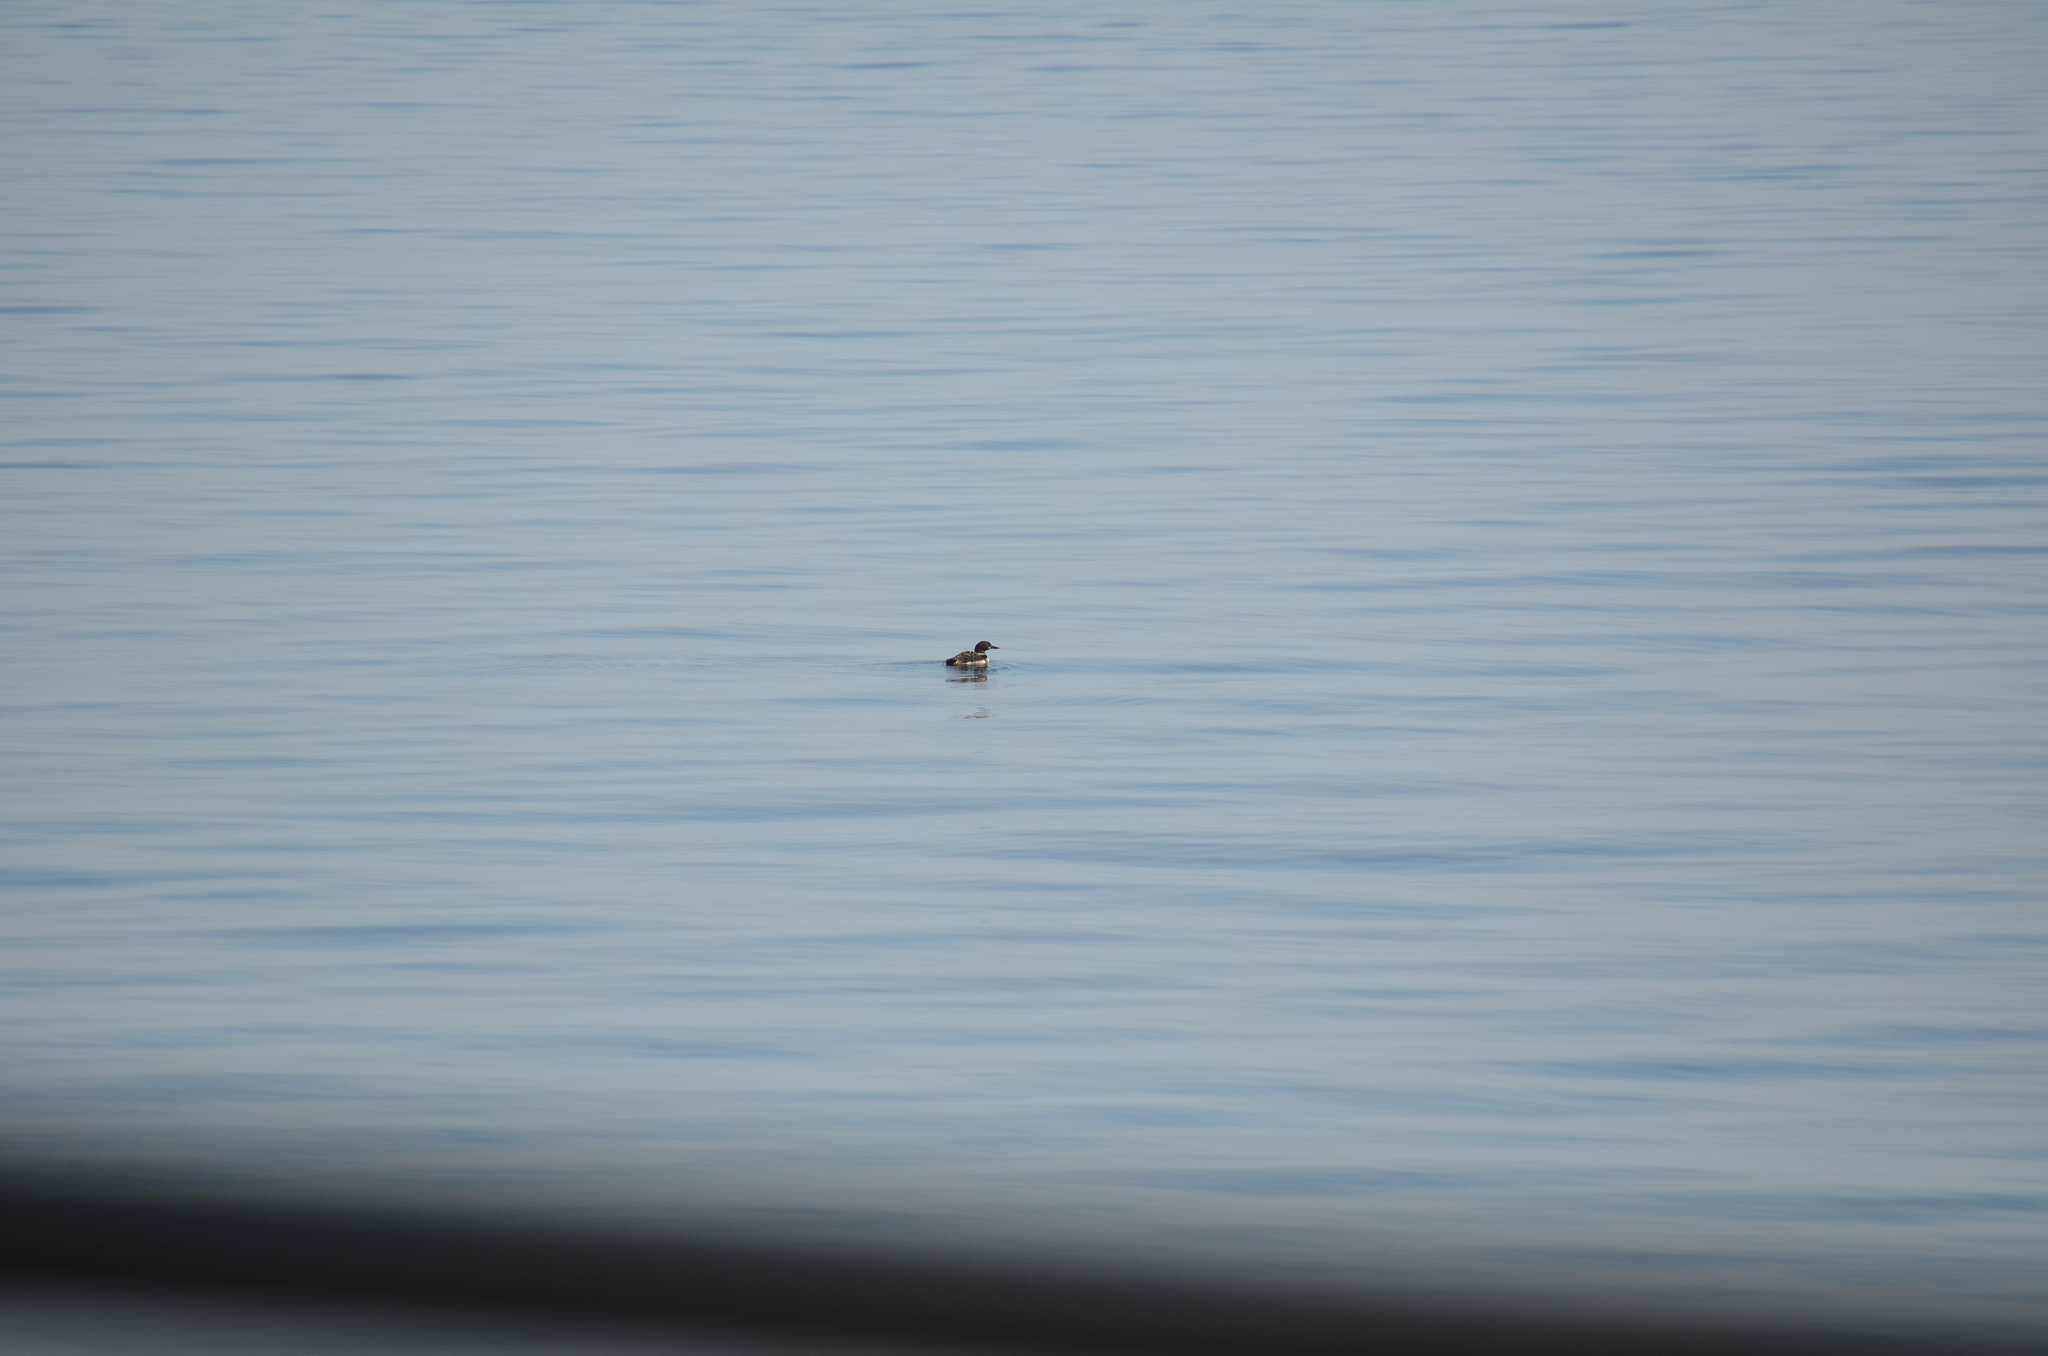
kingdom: Animalia
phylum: Chordata
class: Aves
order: Gaviiformes
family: Gaviidae
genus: Gavia
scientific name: Gavia immer
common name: Common loon
